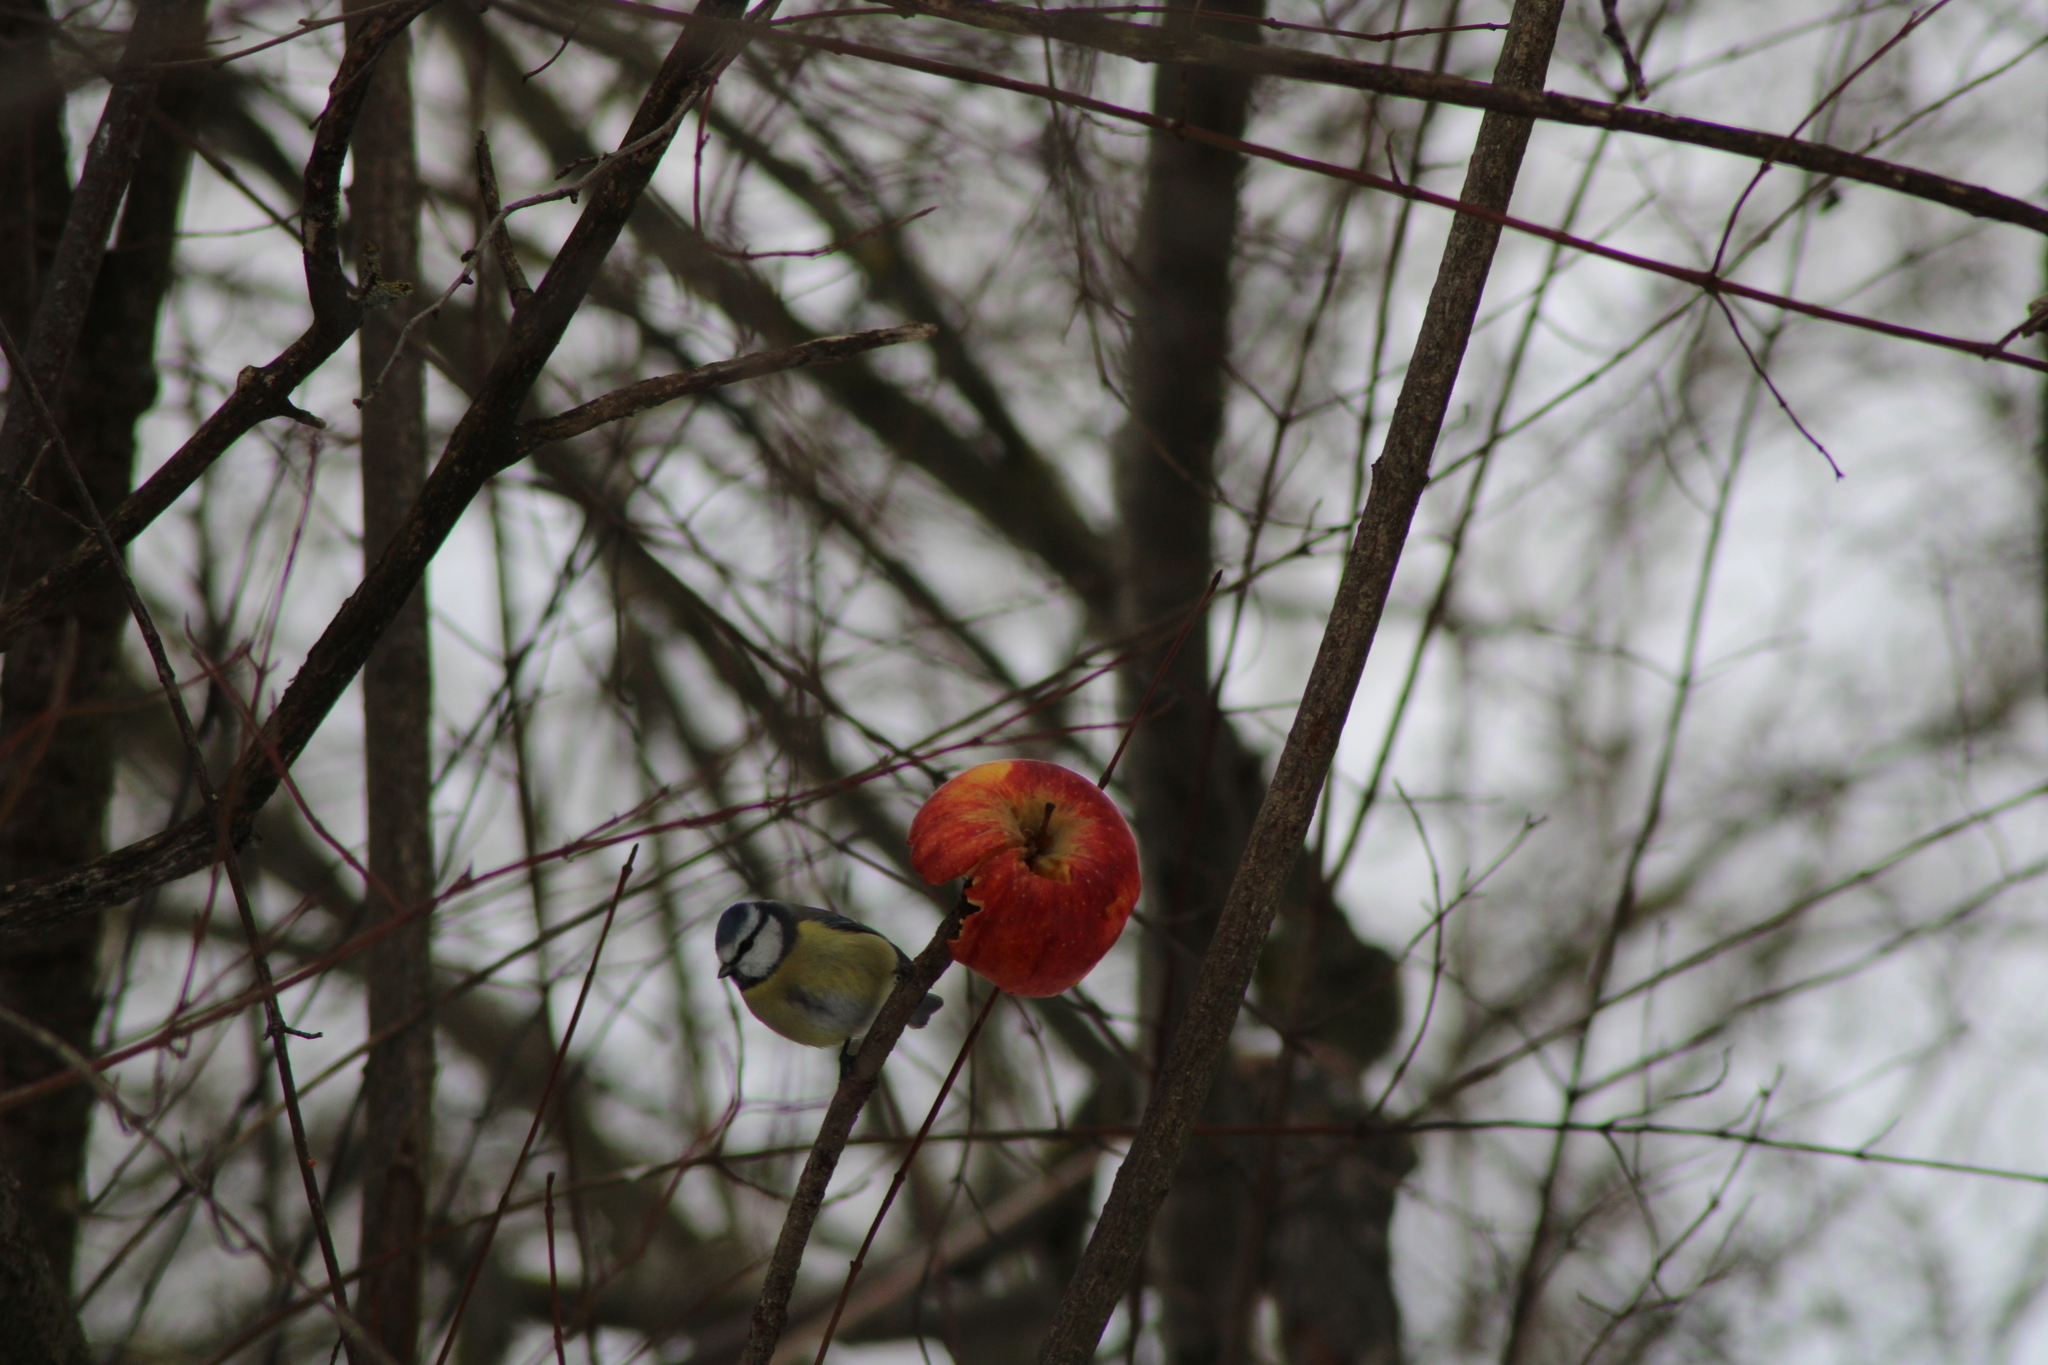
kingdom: Animalia
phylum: Chordata
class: Aves
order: Passeriformes
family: Paridae
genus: Cyanistes
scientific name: Cyanistes caeruleus
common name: Eurasian blue tit
